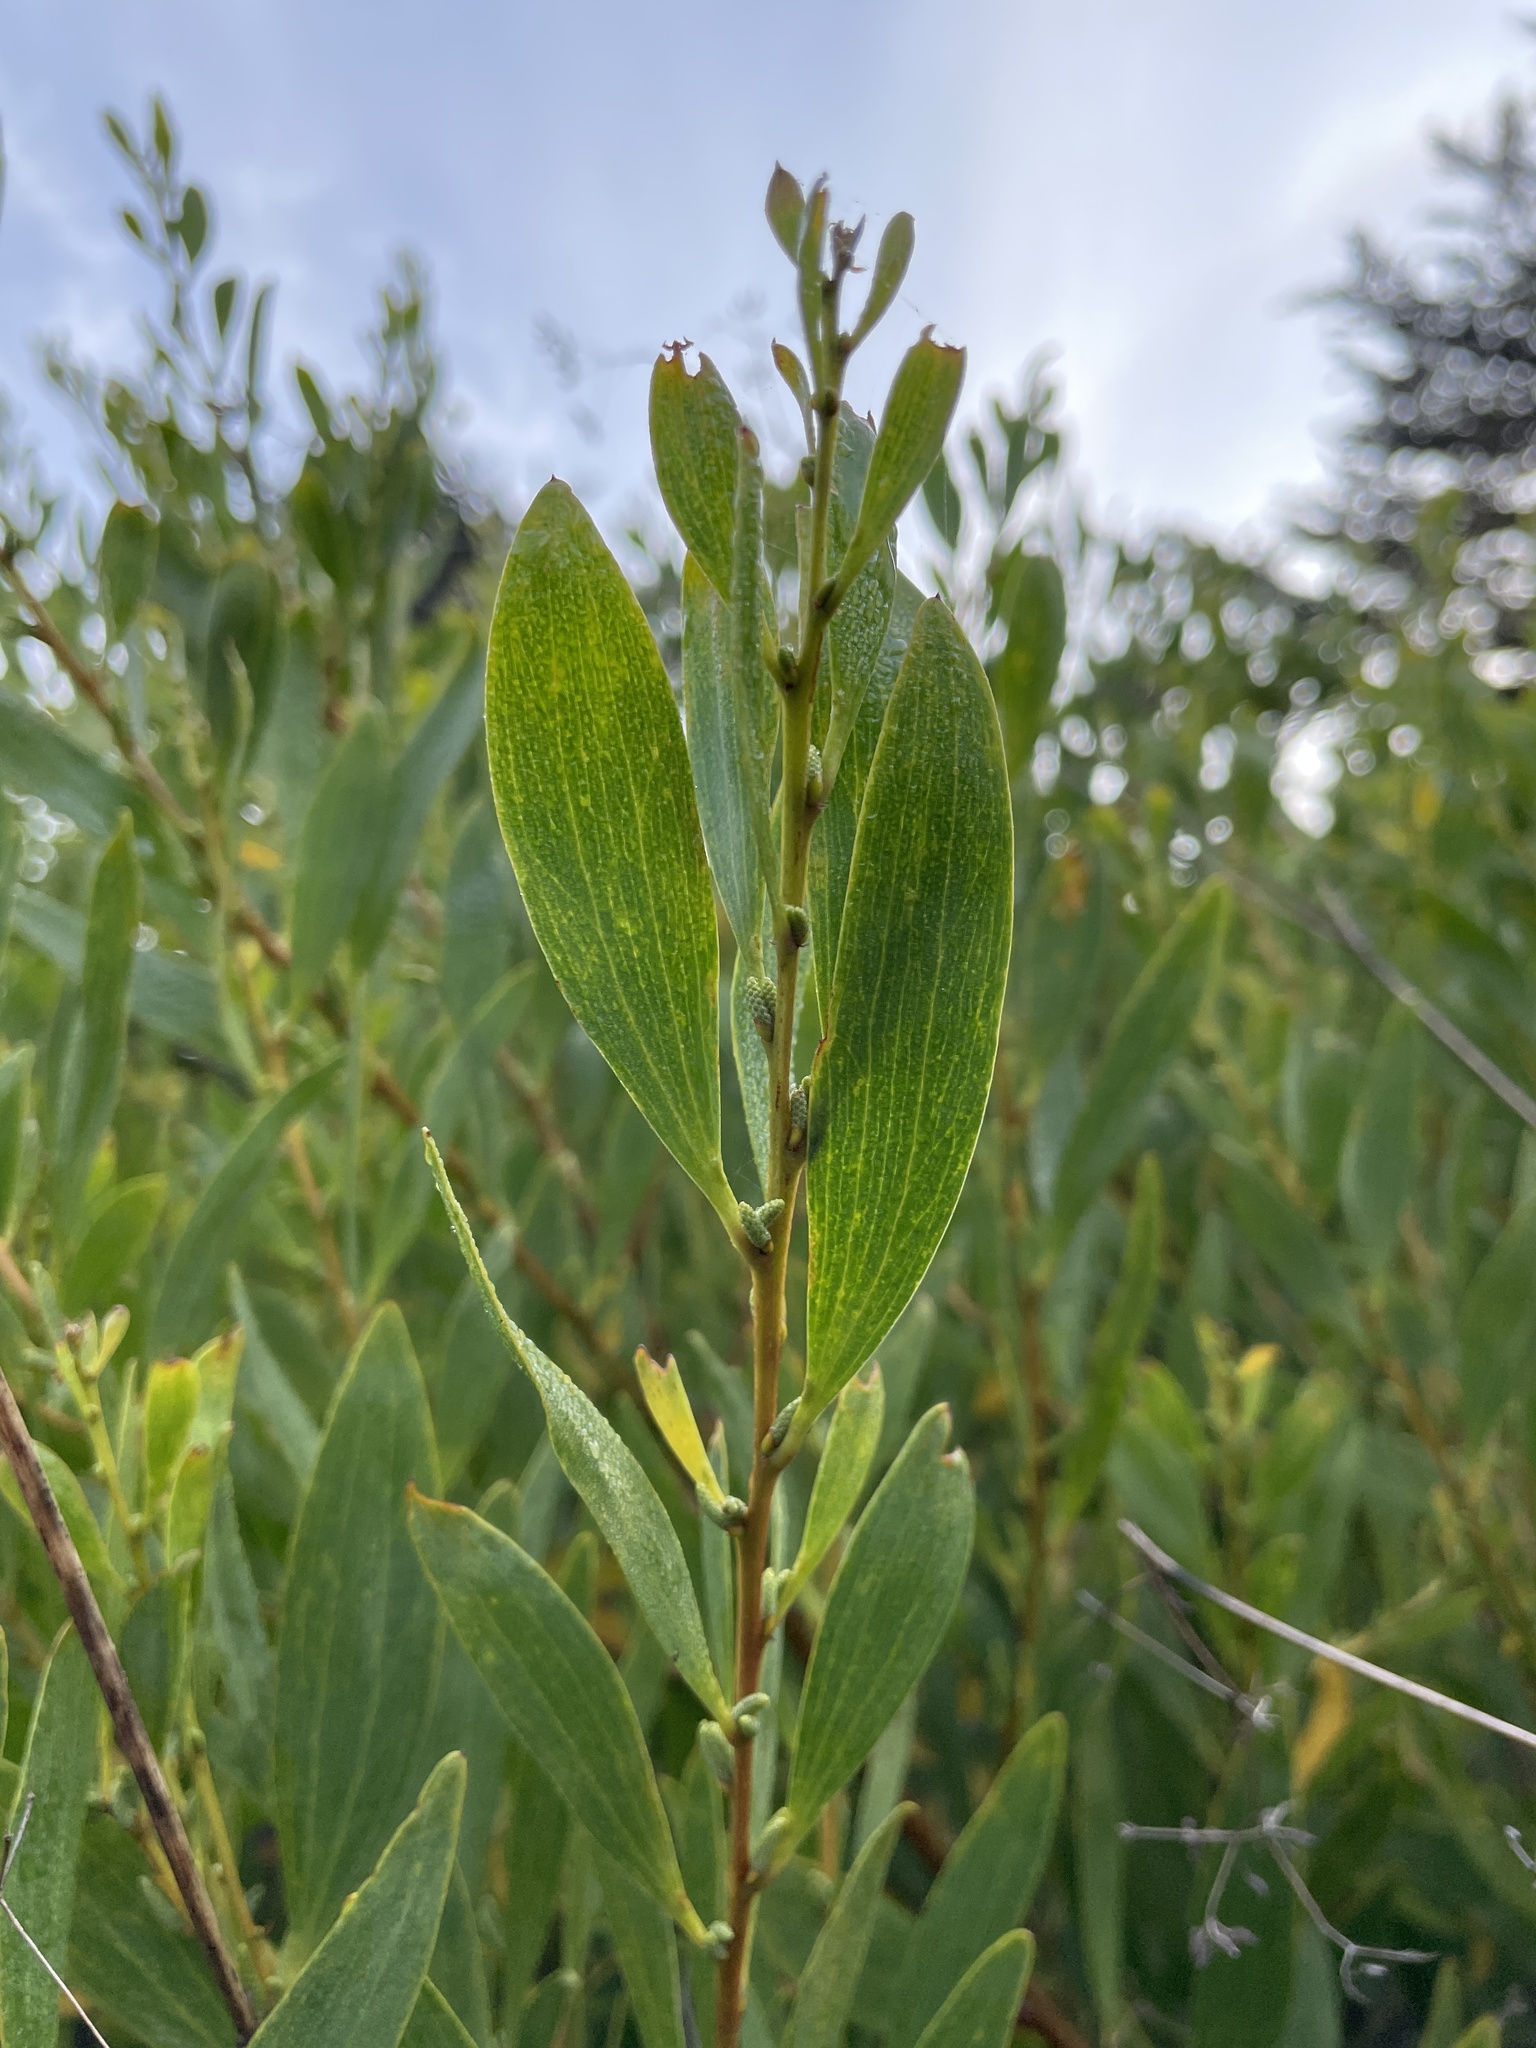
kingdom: Plantae
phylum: Tracheophyta
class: Magnoliopsida
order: Fabales
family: Fabaceae
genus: Acacia
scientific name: Acacia longifolia
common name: Sydney golden wattle
